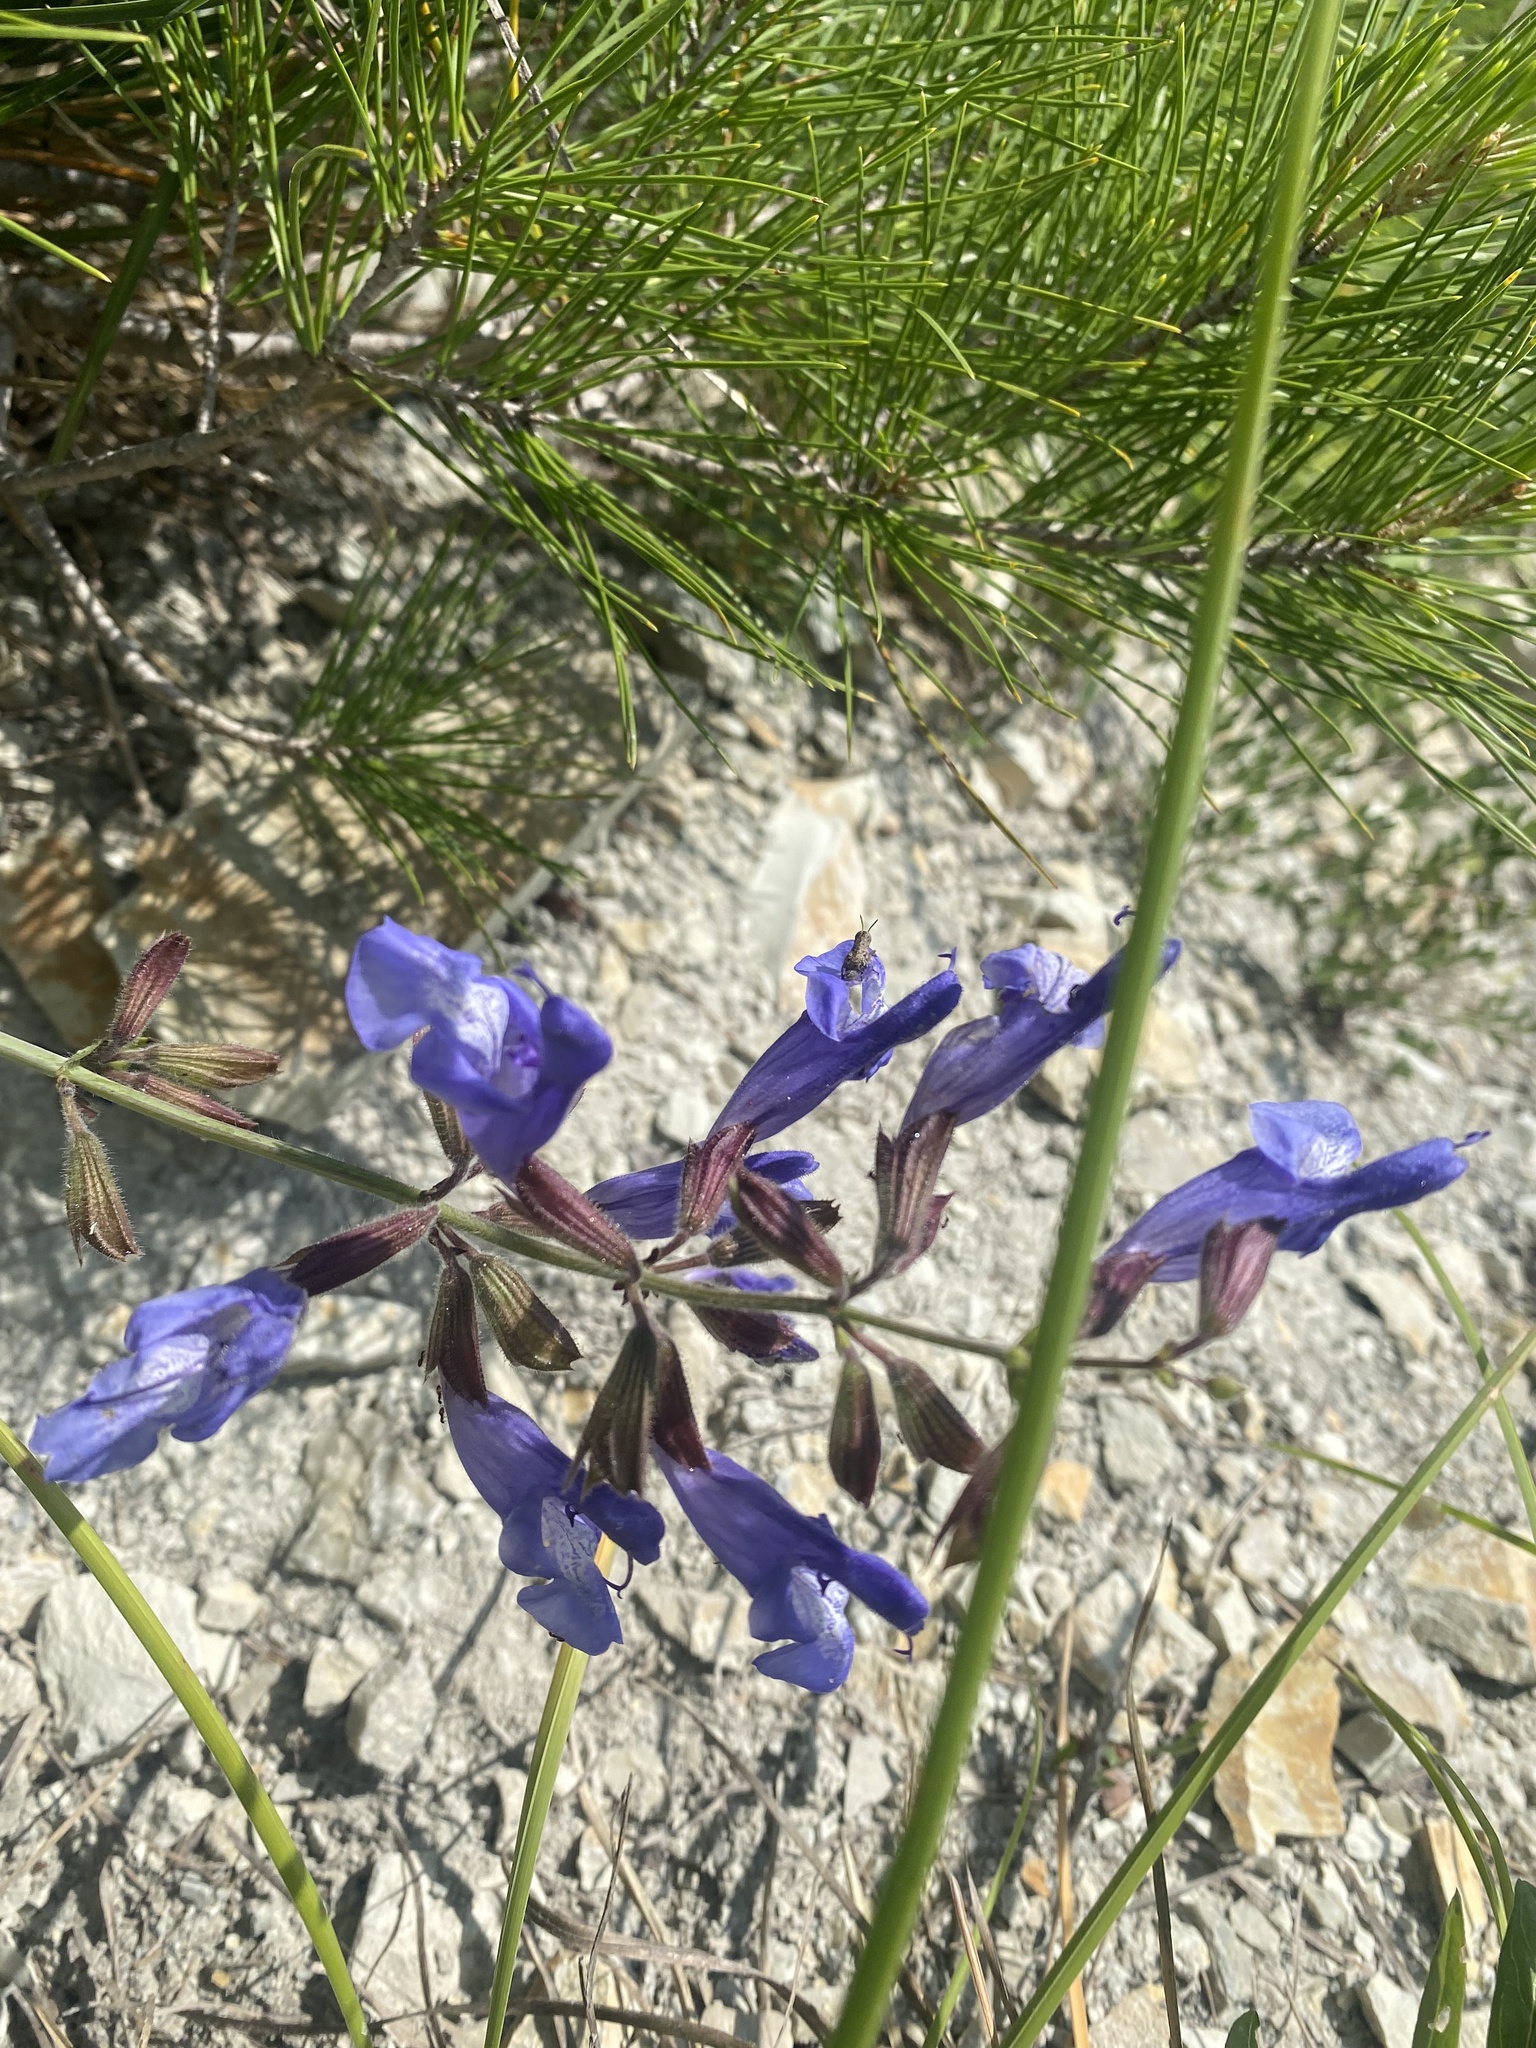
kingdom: Plantae
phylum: Tracheophyta
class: Magnoliopsida
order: Lamiales
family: Lamiaceae
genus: Salvia
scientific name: Salvia ringens
